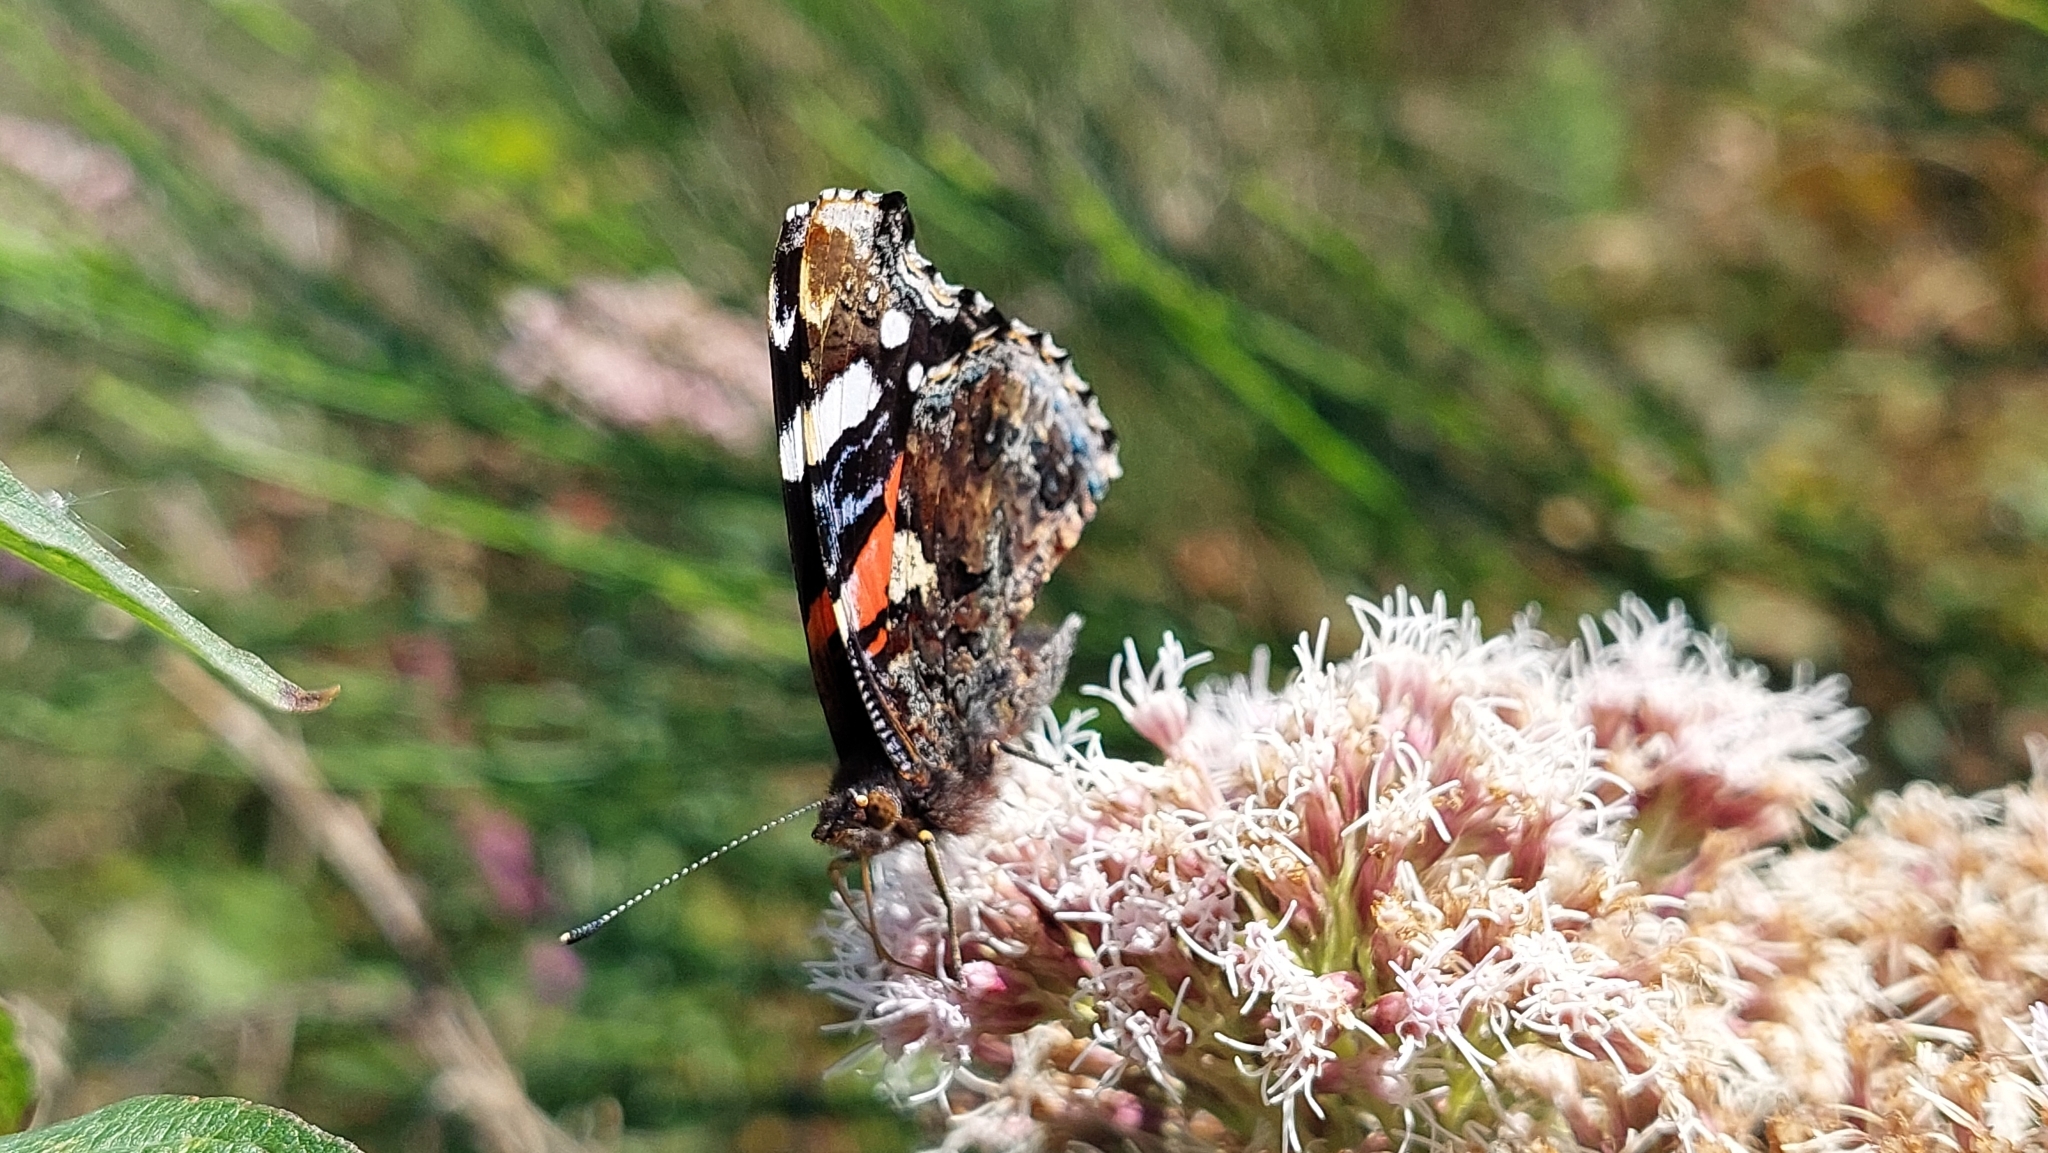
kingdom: Animalia
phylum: Arthropoda
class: Insecta
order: Lepidoptera
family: Nymphalidae
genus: Vanessa
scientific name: Vanessa atalanta
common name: Red admiral
